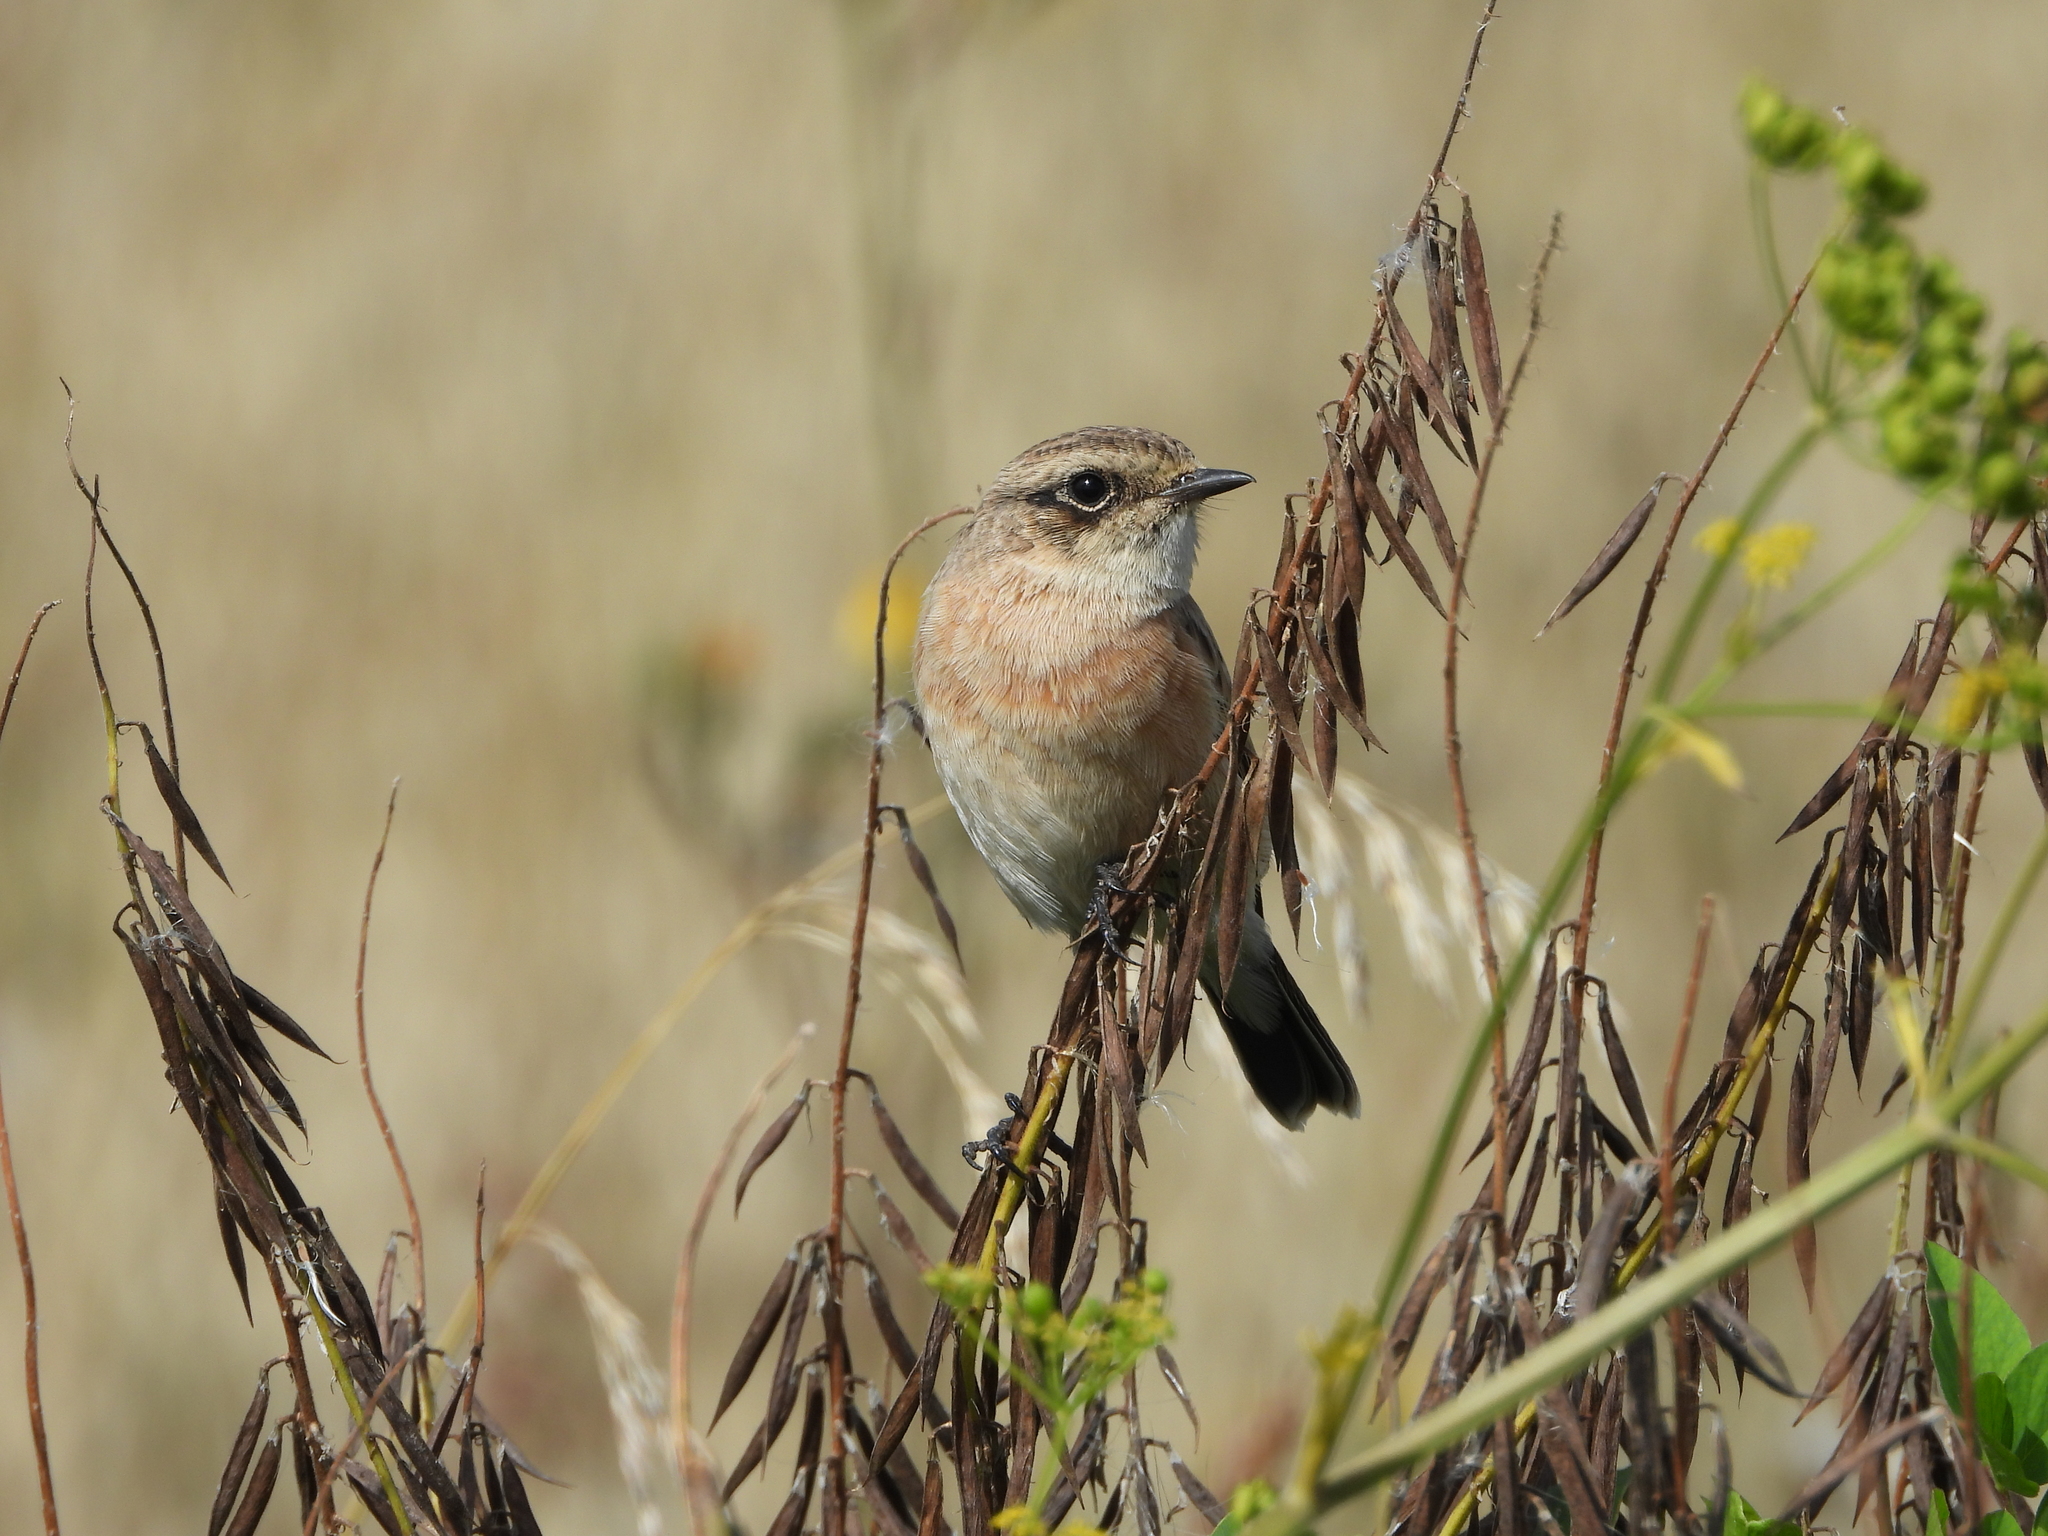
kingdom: Animalia
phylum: Chordata
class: Aves
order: Passeriformes
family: Muscicapidae
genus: Saxicola
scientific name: Saxicola maurus
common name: Siberian stonechat
